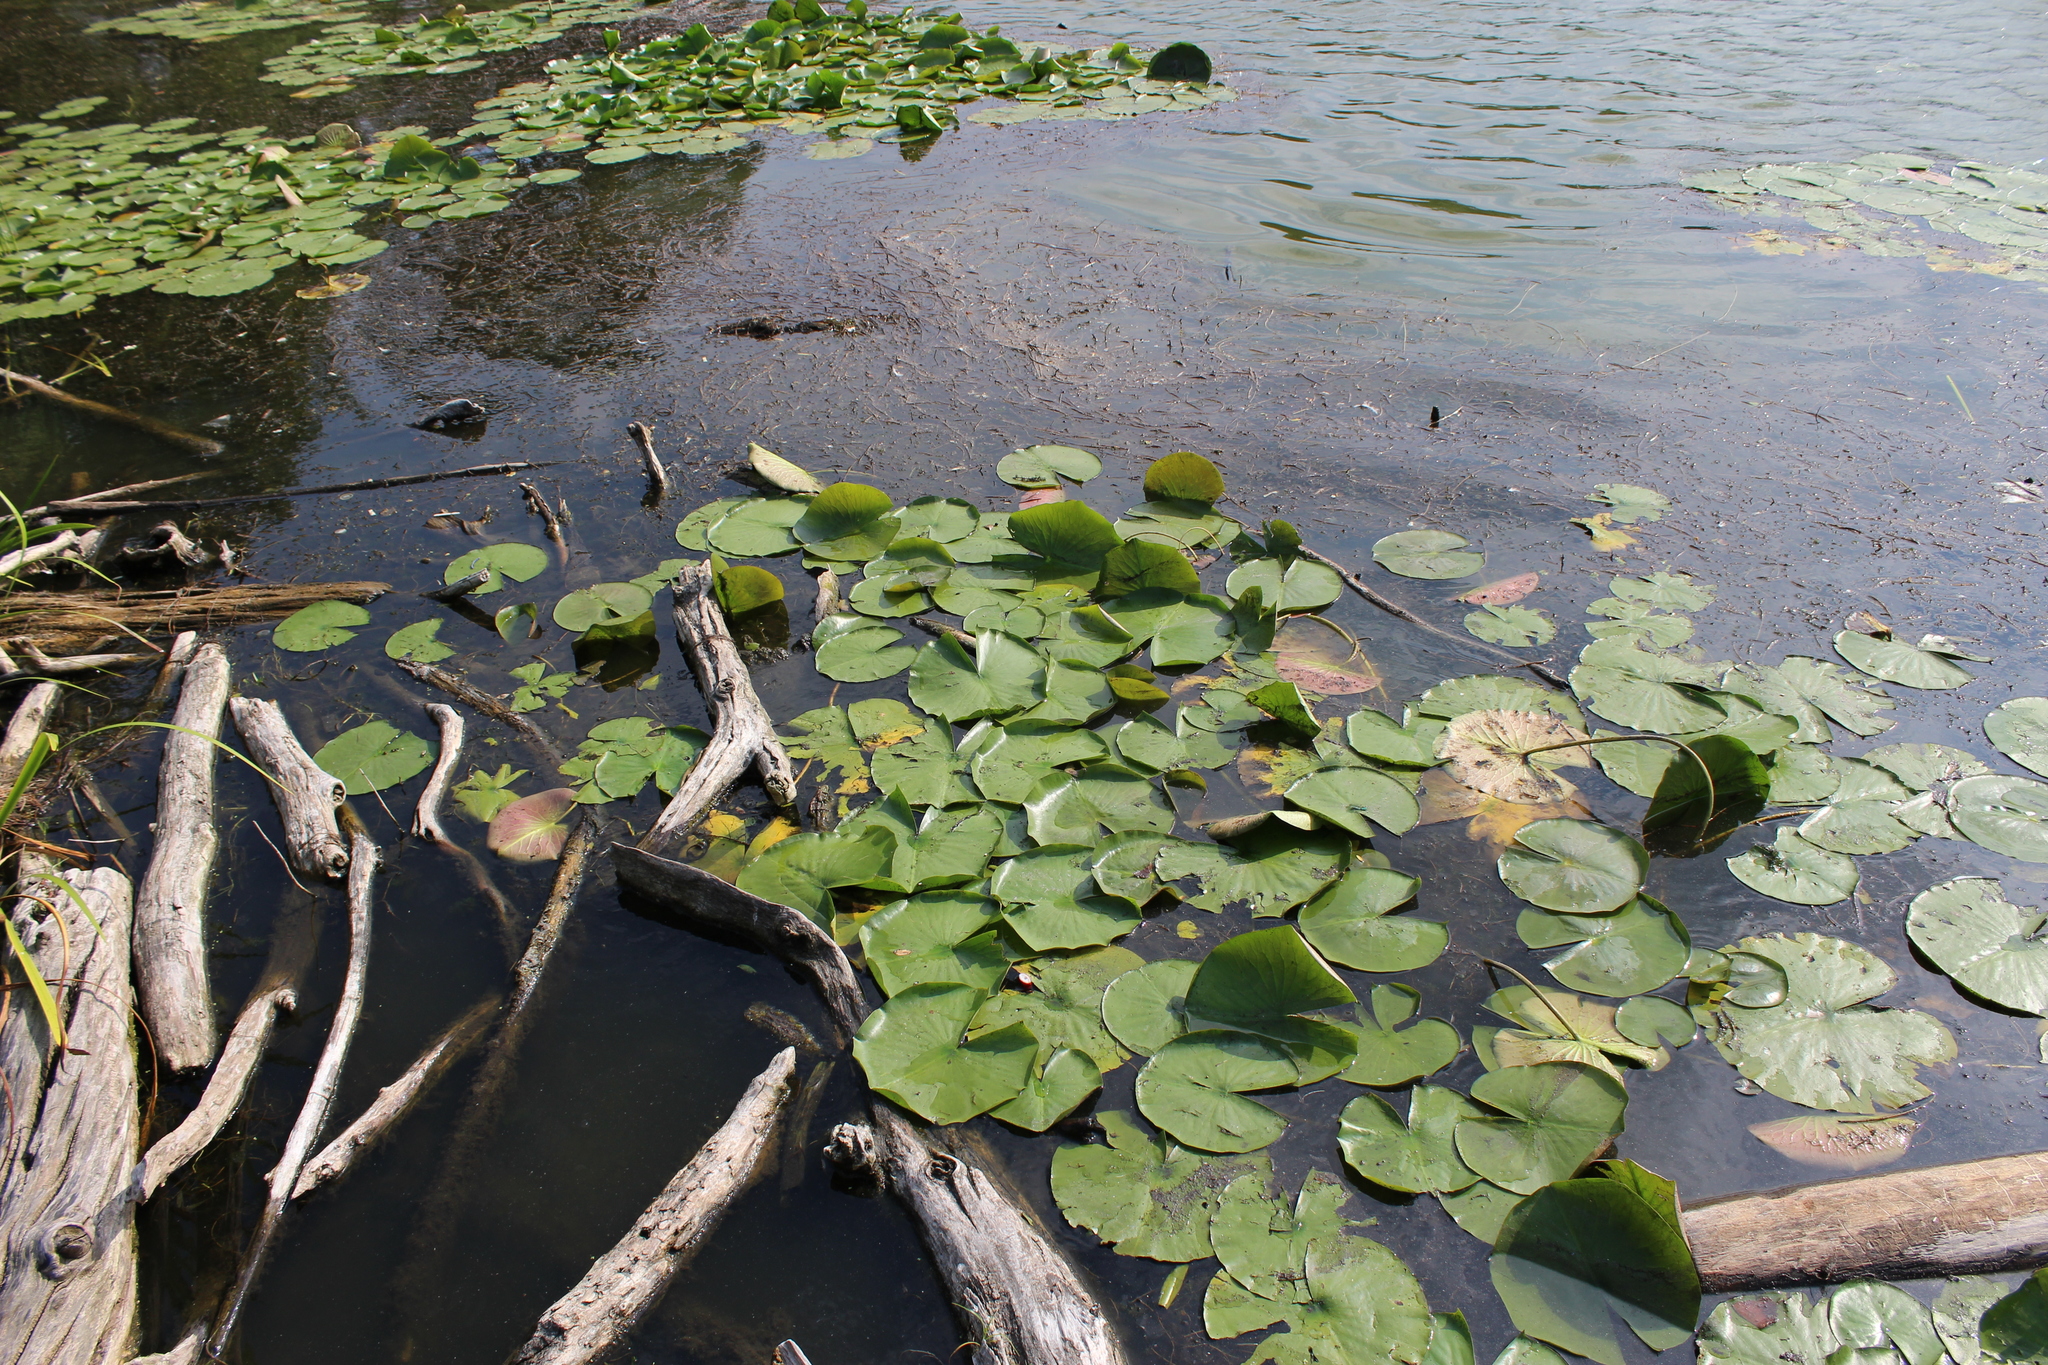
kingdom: Plantae
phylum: Tracheophyta
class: Magnoliopsida
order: Nymphaeales
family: Nymphaeaceae
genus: Nymphaea
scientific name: Nymphaea odorata
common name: Fragrant water-lily
